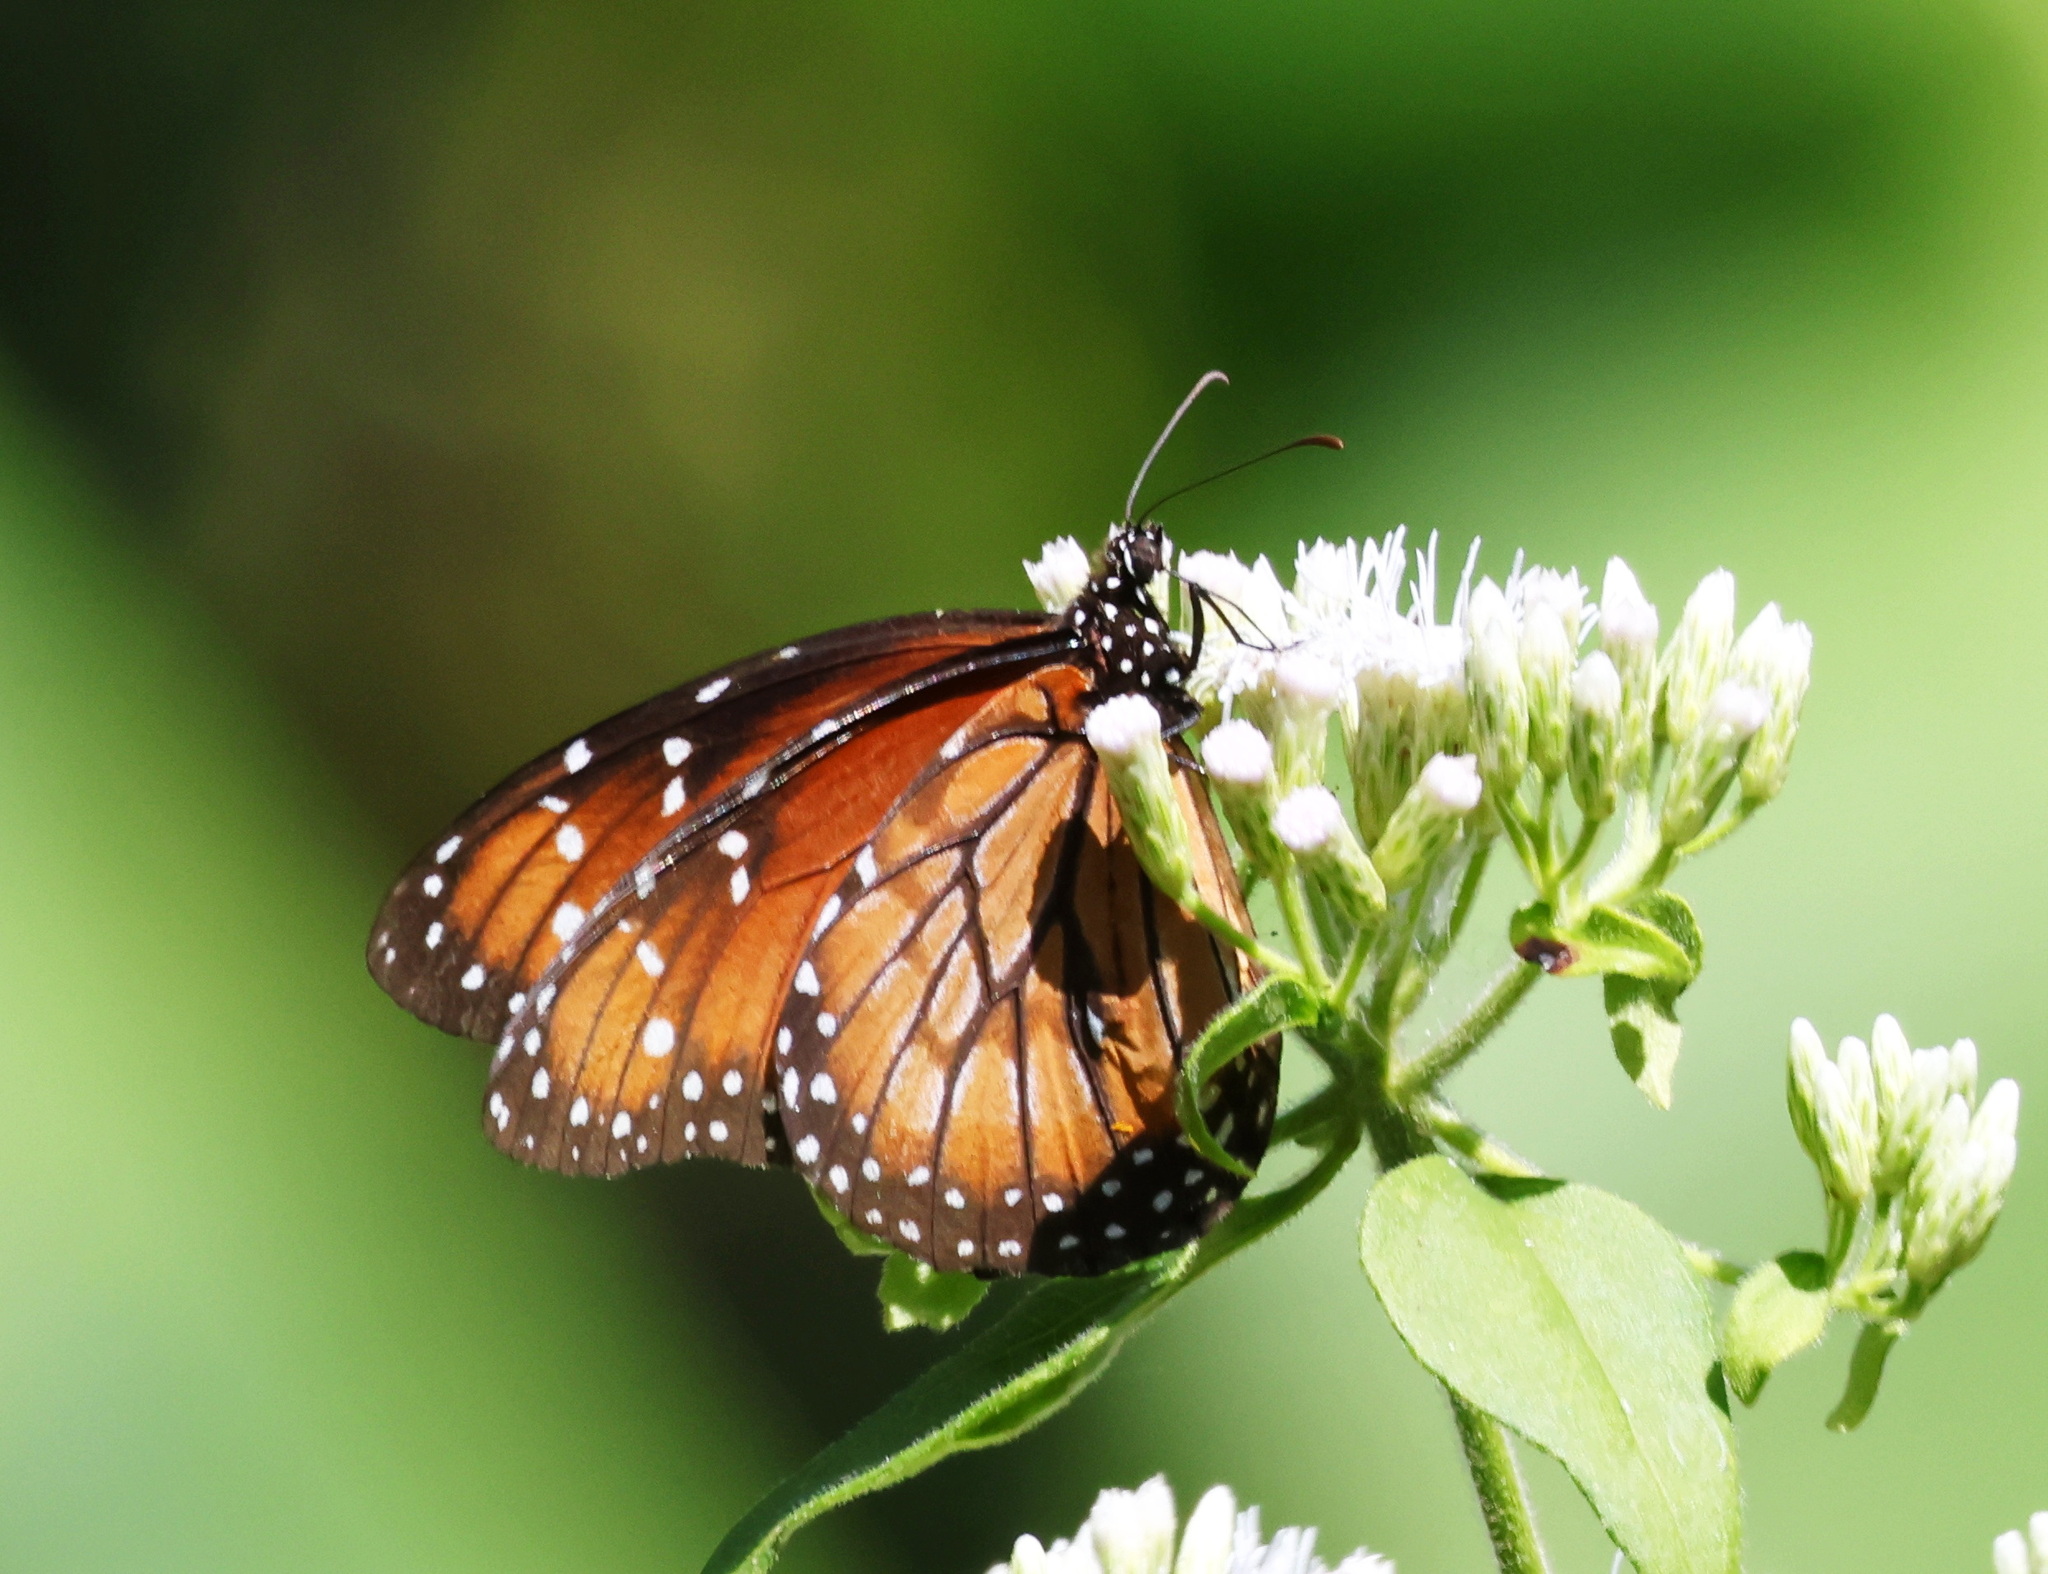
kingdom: Animalia
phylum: Arthropoda
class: Insecta
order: Lepidoptera
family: Nymphalidae
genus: Danaus
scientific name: Danaus eresimus
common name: Soldier
